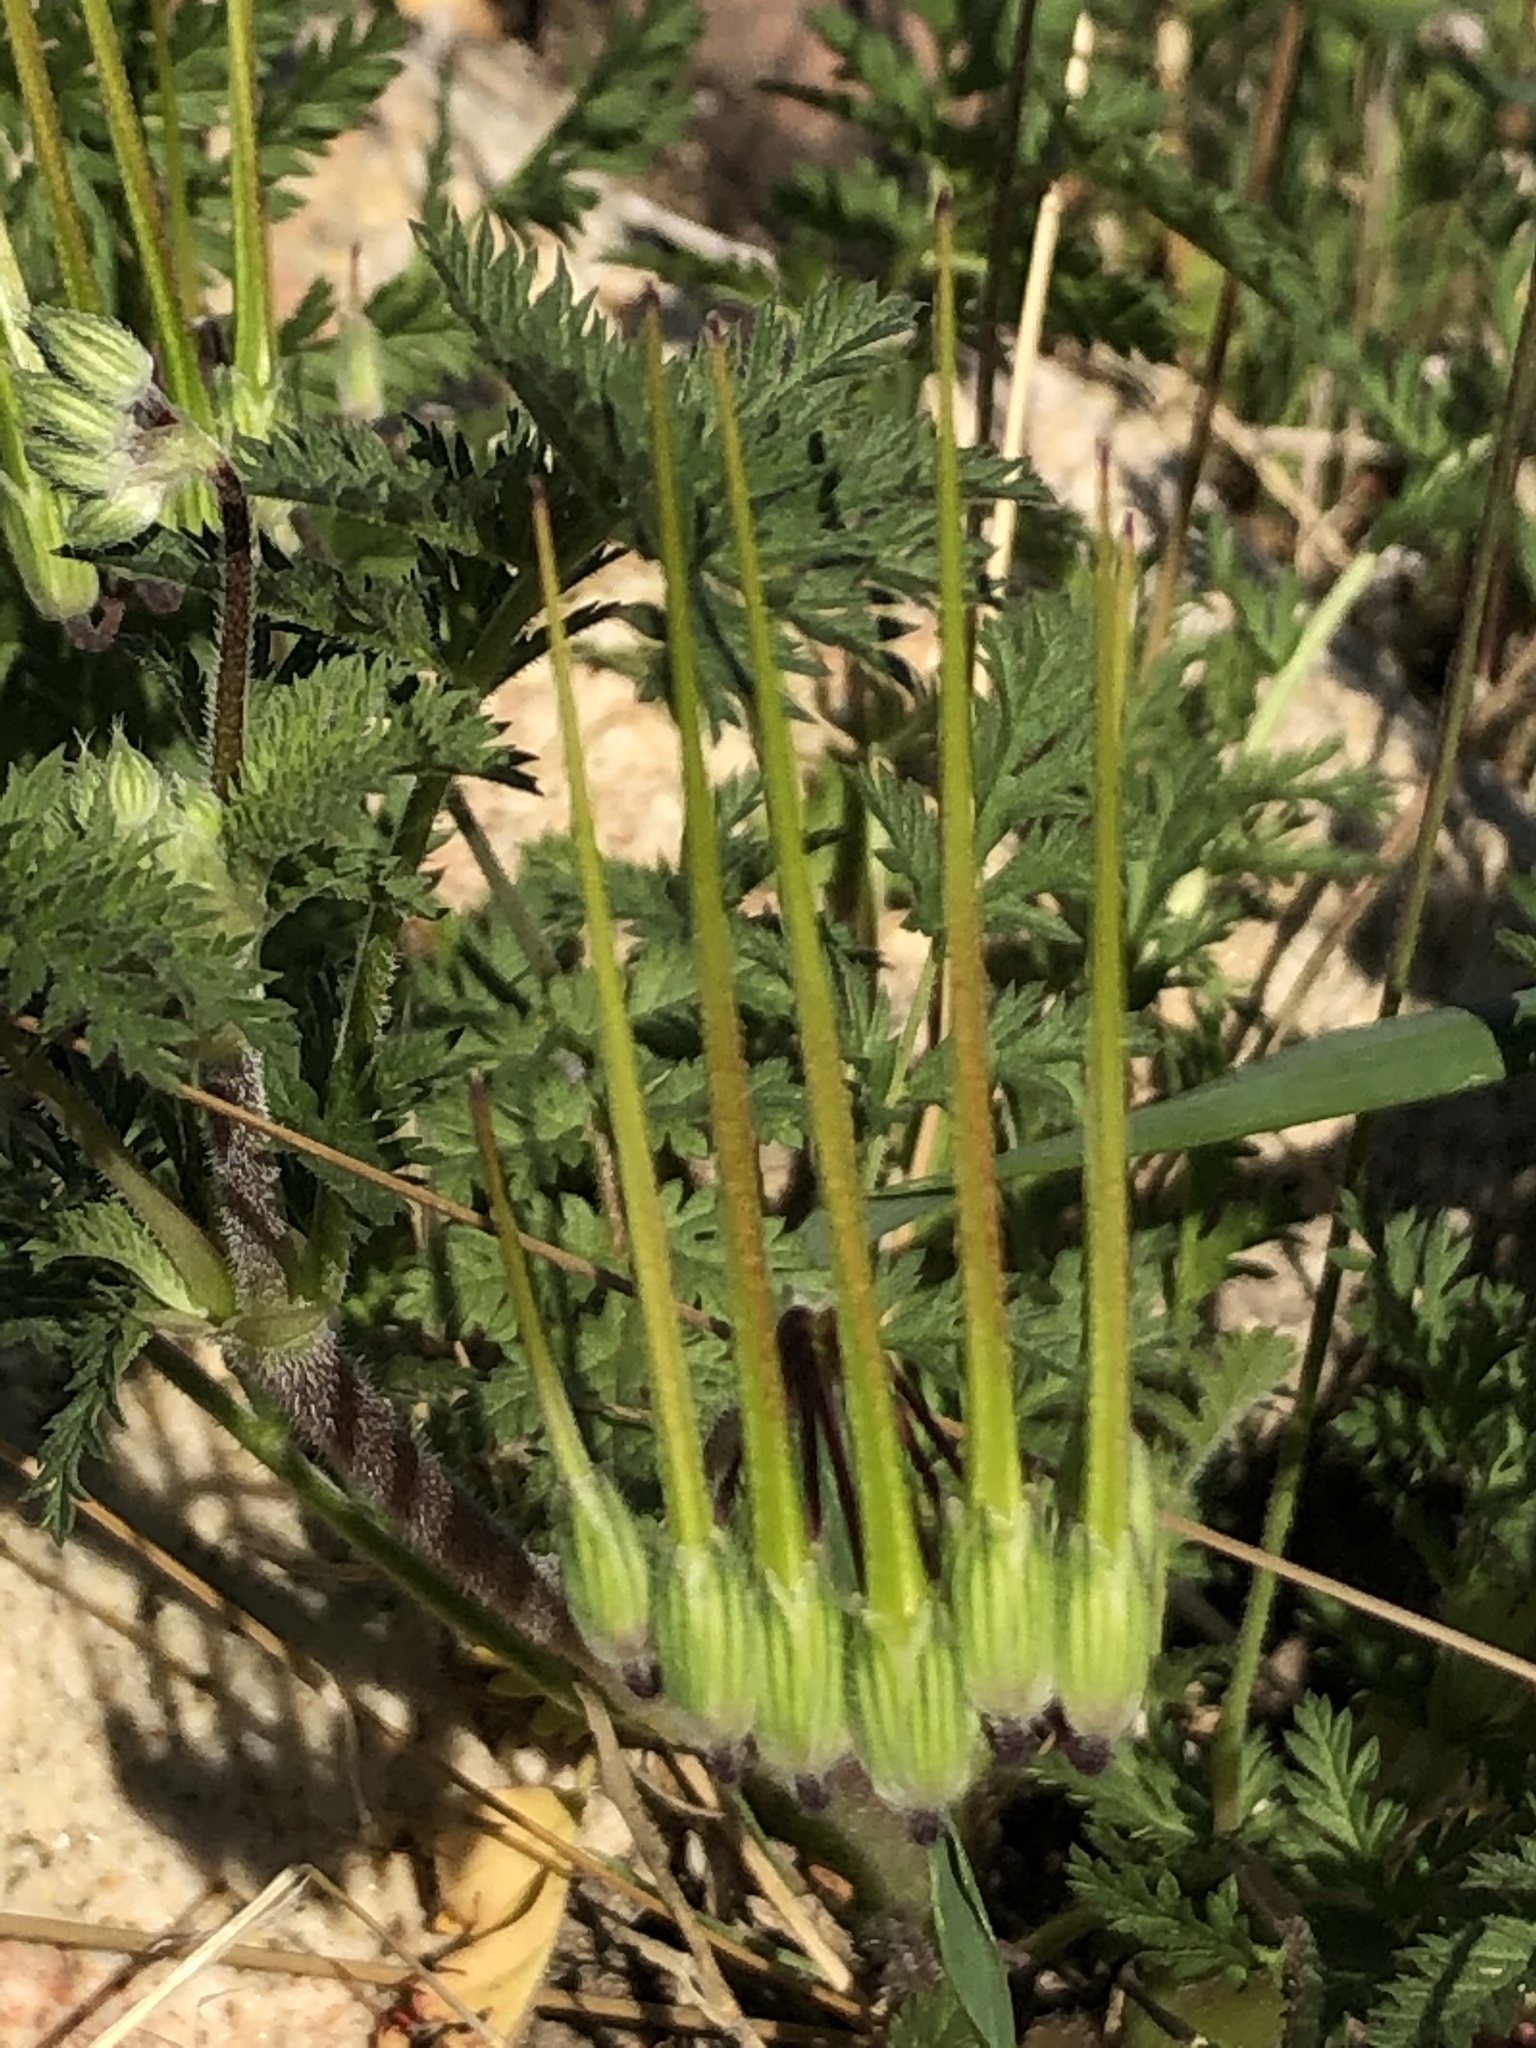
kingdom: Plantae
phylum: Tracheophyta
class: Magnoliopsida
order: Geraniales
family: Geraniaceae
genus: Erodium
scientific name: Erodium cicutarium
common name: Common stork's-bill
